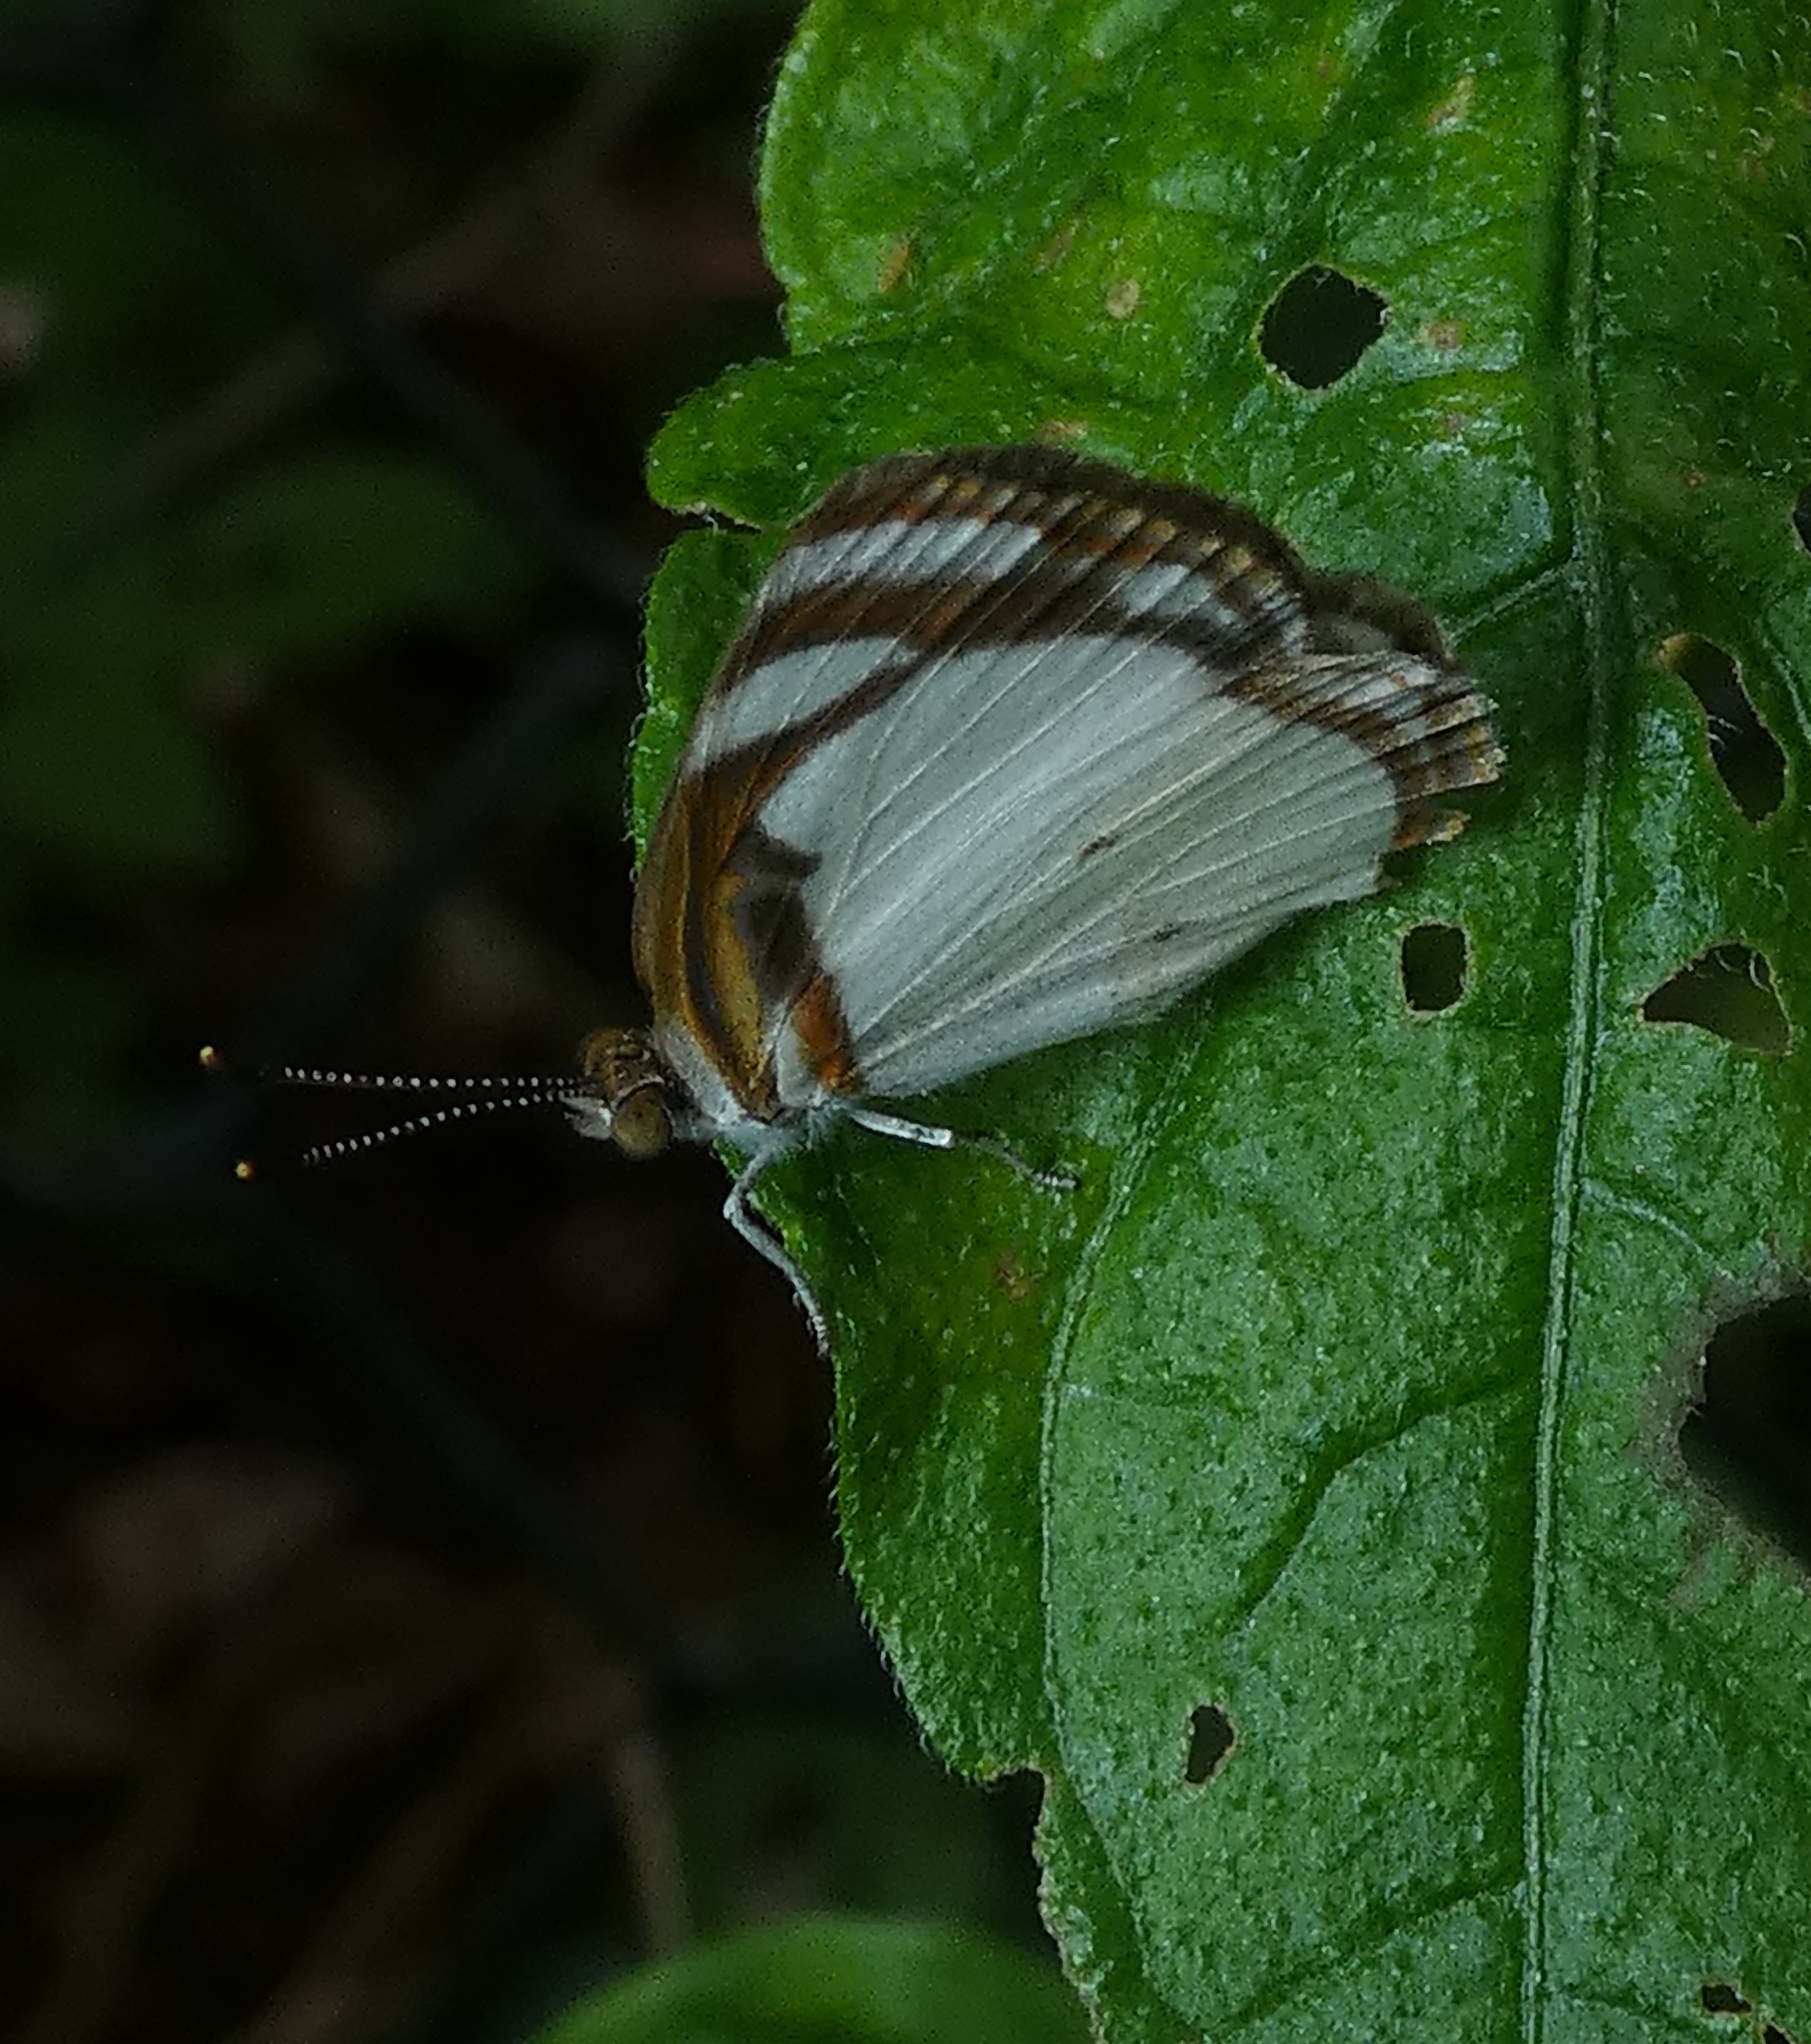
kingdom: Animalia
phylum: Arthropoda
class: Insecta
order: Lepidoptera
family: Nymphalidae
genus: Dynamine
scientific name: Dynamine agacles
